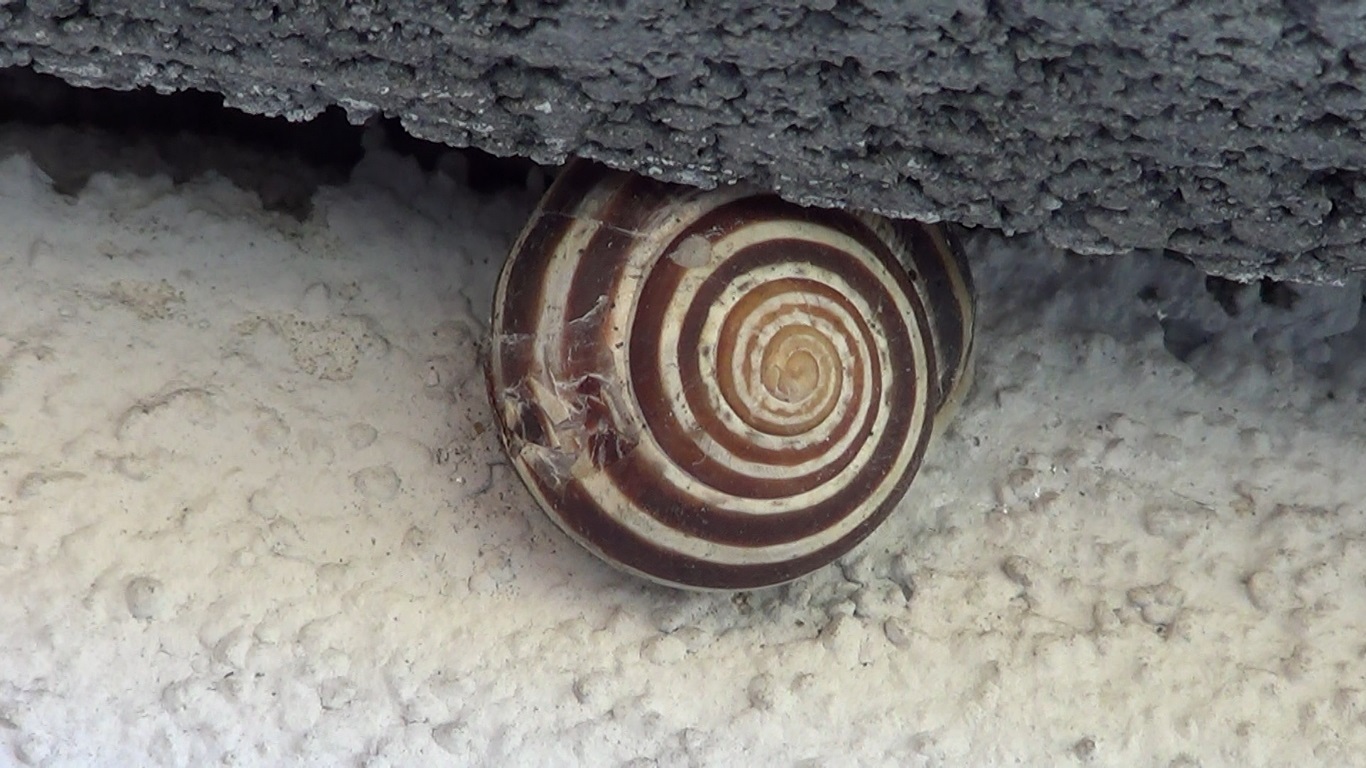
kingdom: Animalia
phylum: Mollusca
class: Gastropoda
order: Stylommatophora
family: Helicidae
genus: Eobania
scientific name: Eobania vermiculata
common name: Chocolateband snail
